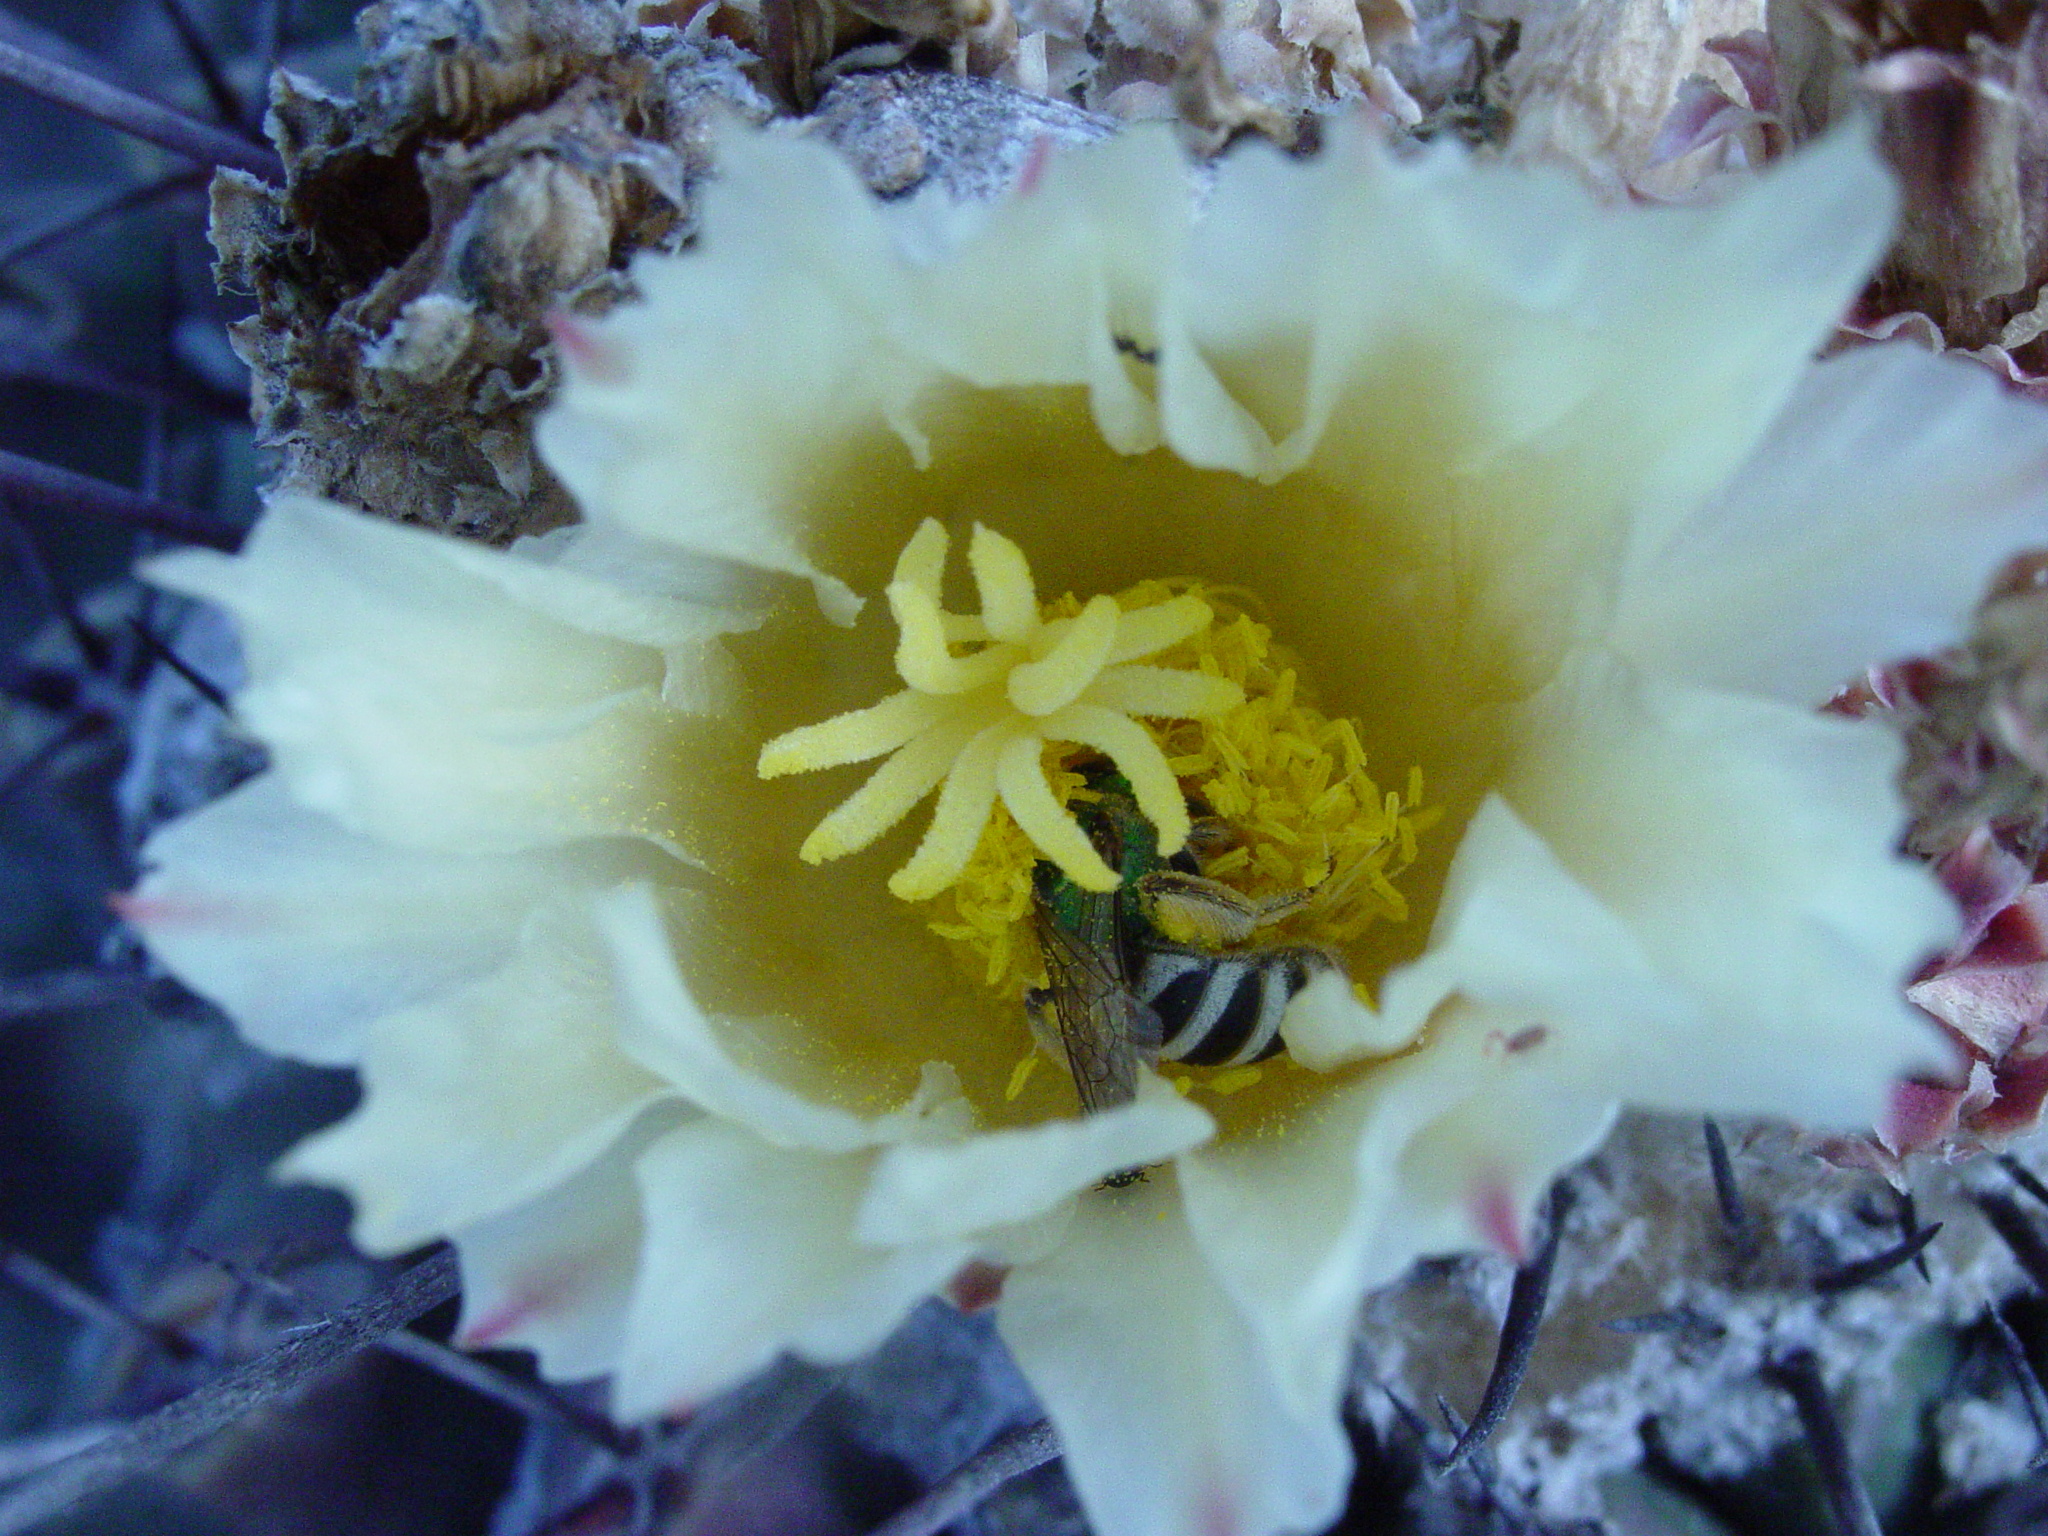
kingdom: Animalia
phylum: Arthropoda
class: Insecta
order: Hymenoptera
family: Halictidae
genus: Agapostemon
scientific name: Agapostemon tyleri
